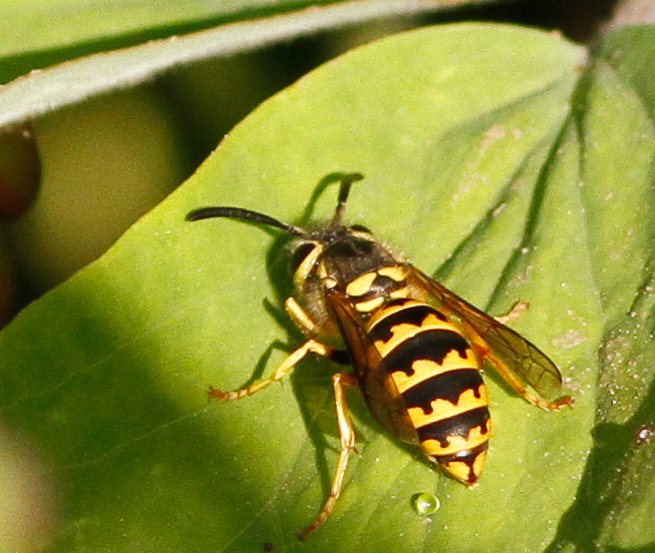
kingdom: Animalia
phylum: Arthropoda
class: Insecta
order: Hymenoptera
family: Vespidae
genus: Vespula
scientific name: Vespula pensylvanica
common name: Western yellowjacket
